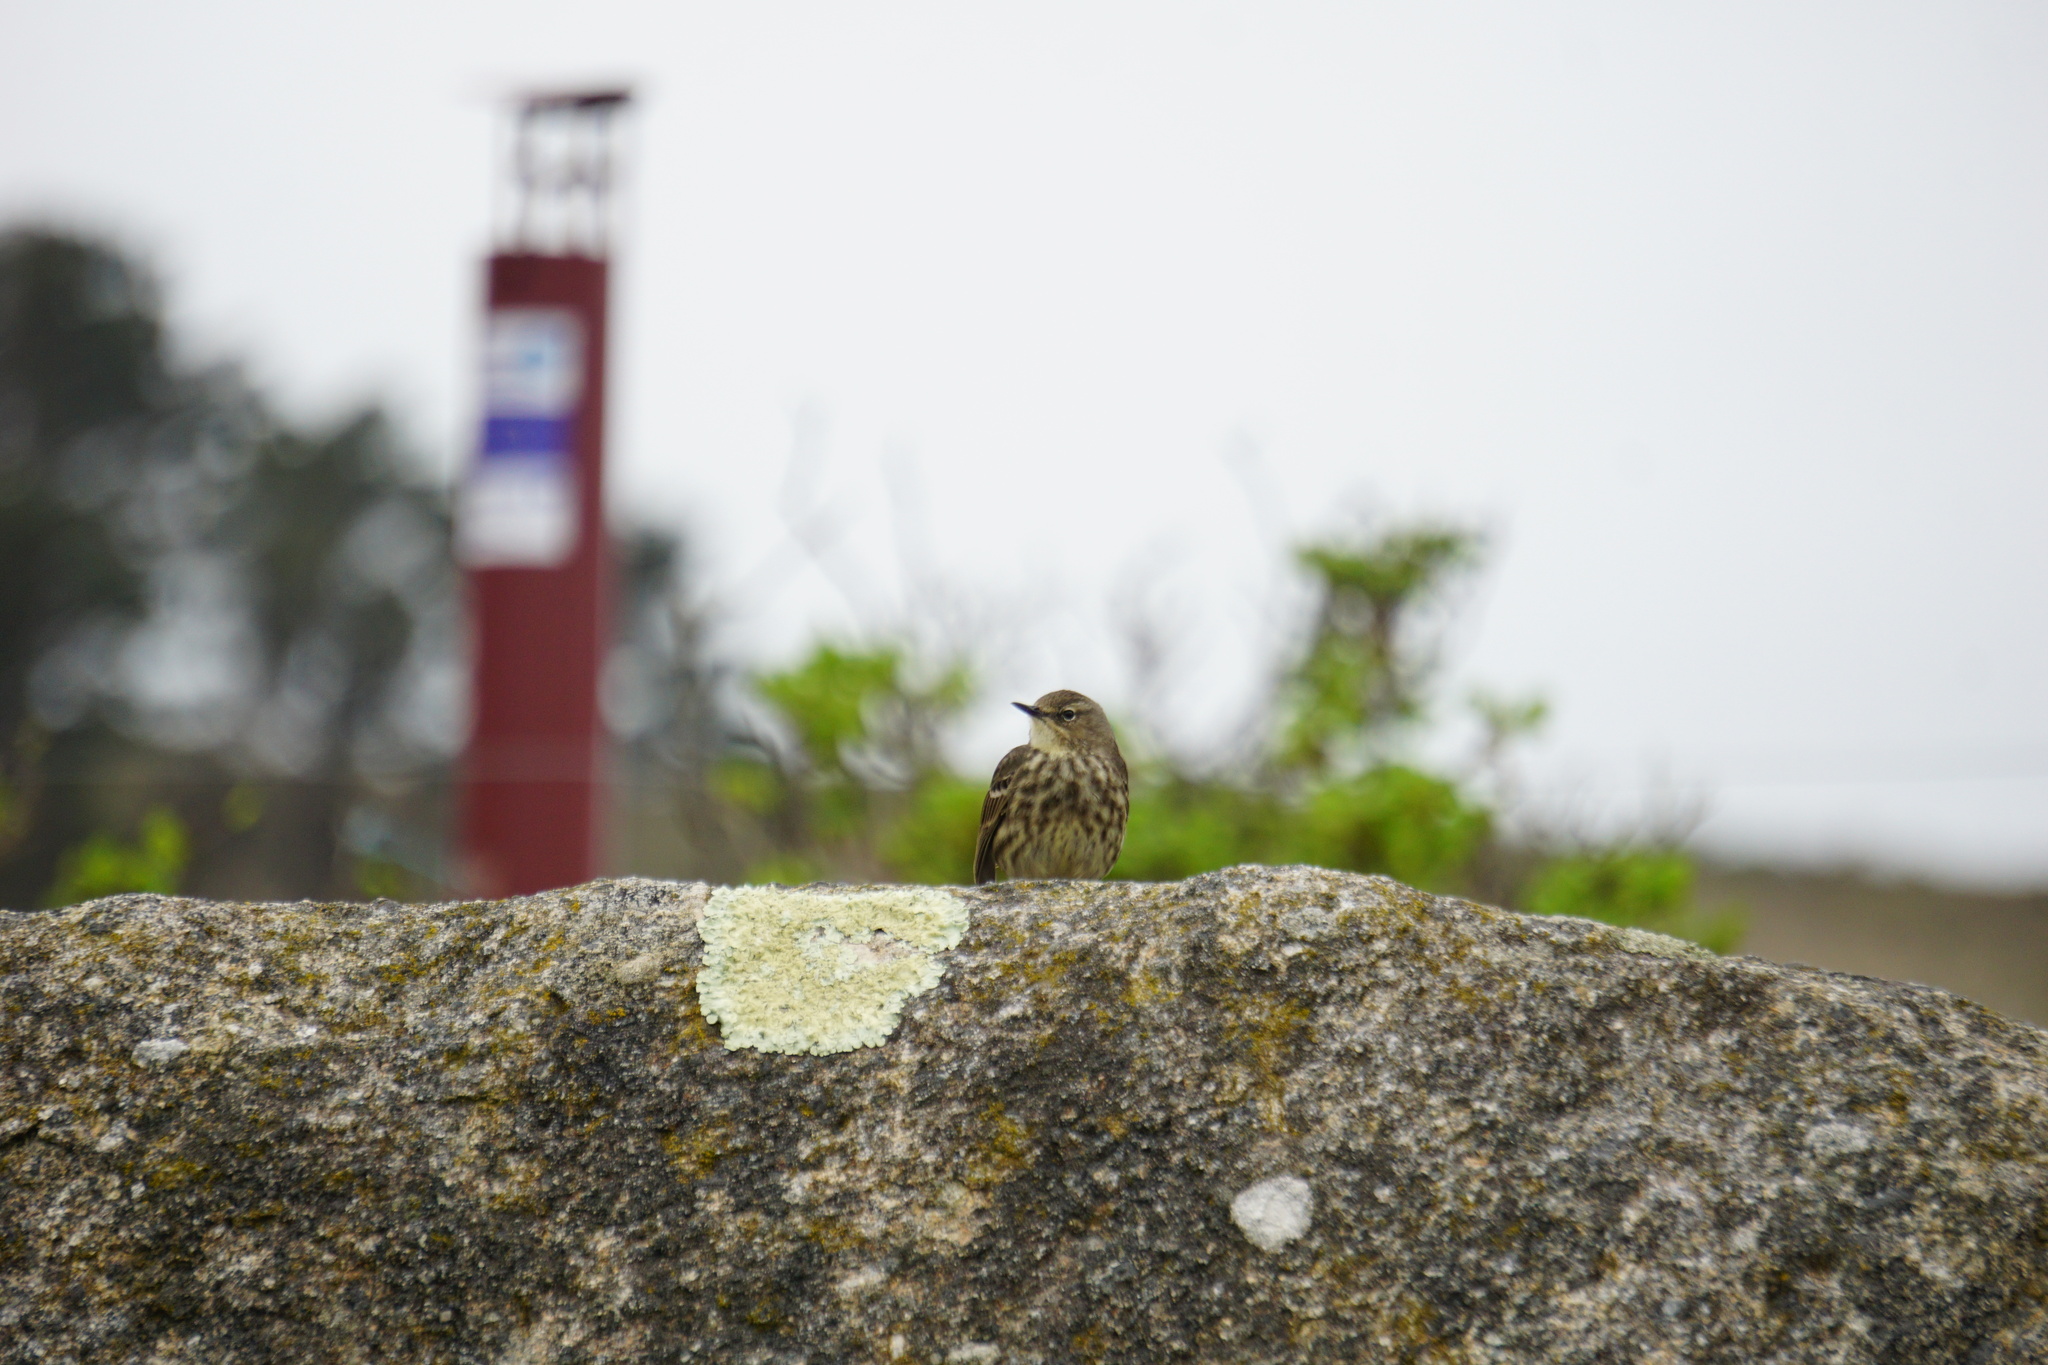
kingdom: Animalia
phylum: Chordata
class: Aves
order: Passeriformes
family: Motacillidae
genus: Anthus
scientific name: Anthus petrosus
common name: Eurasian rock pipit
